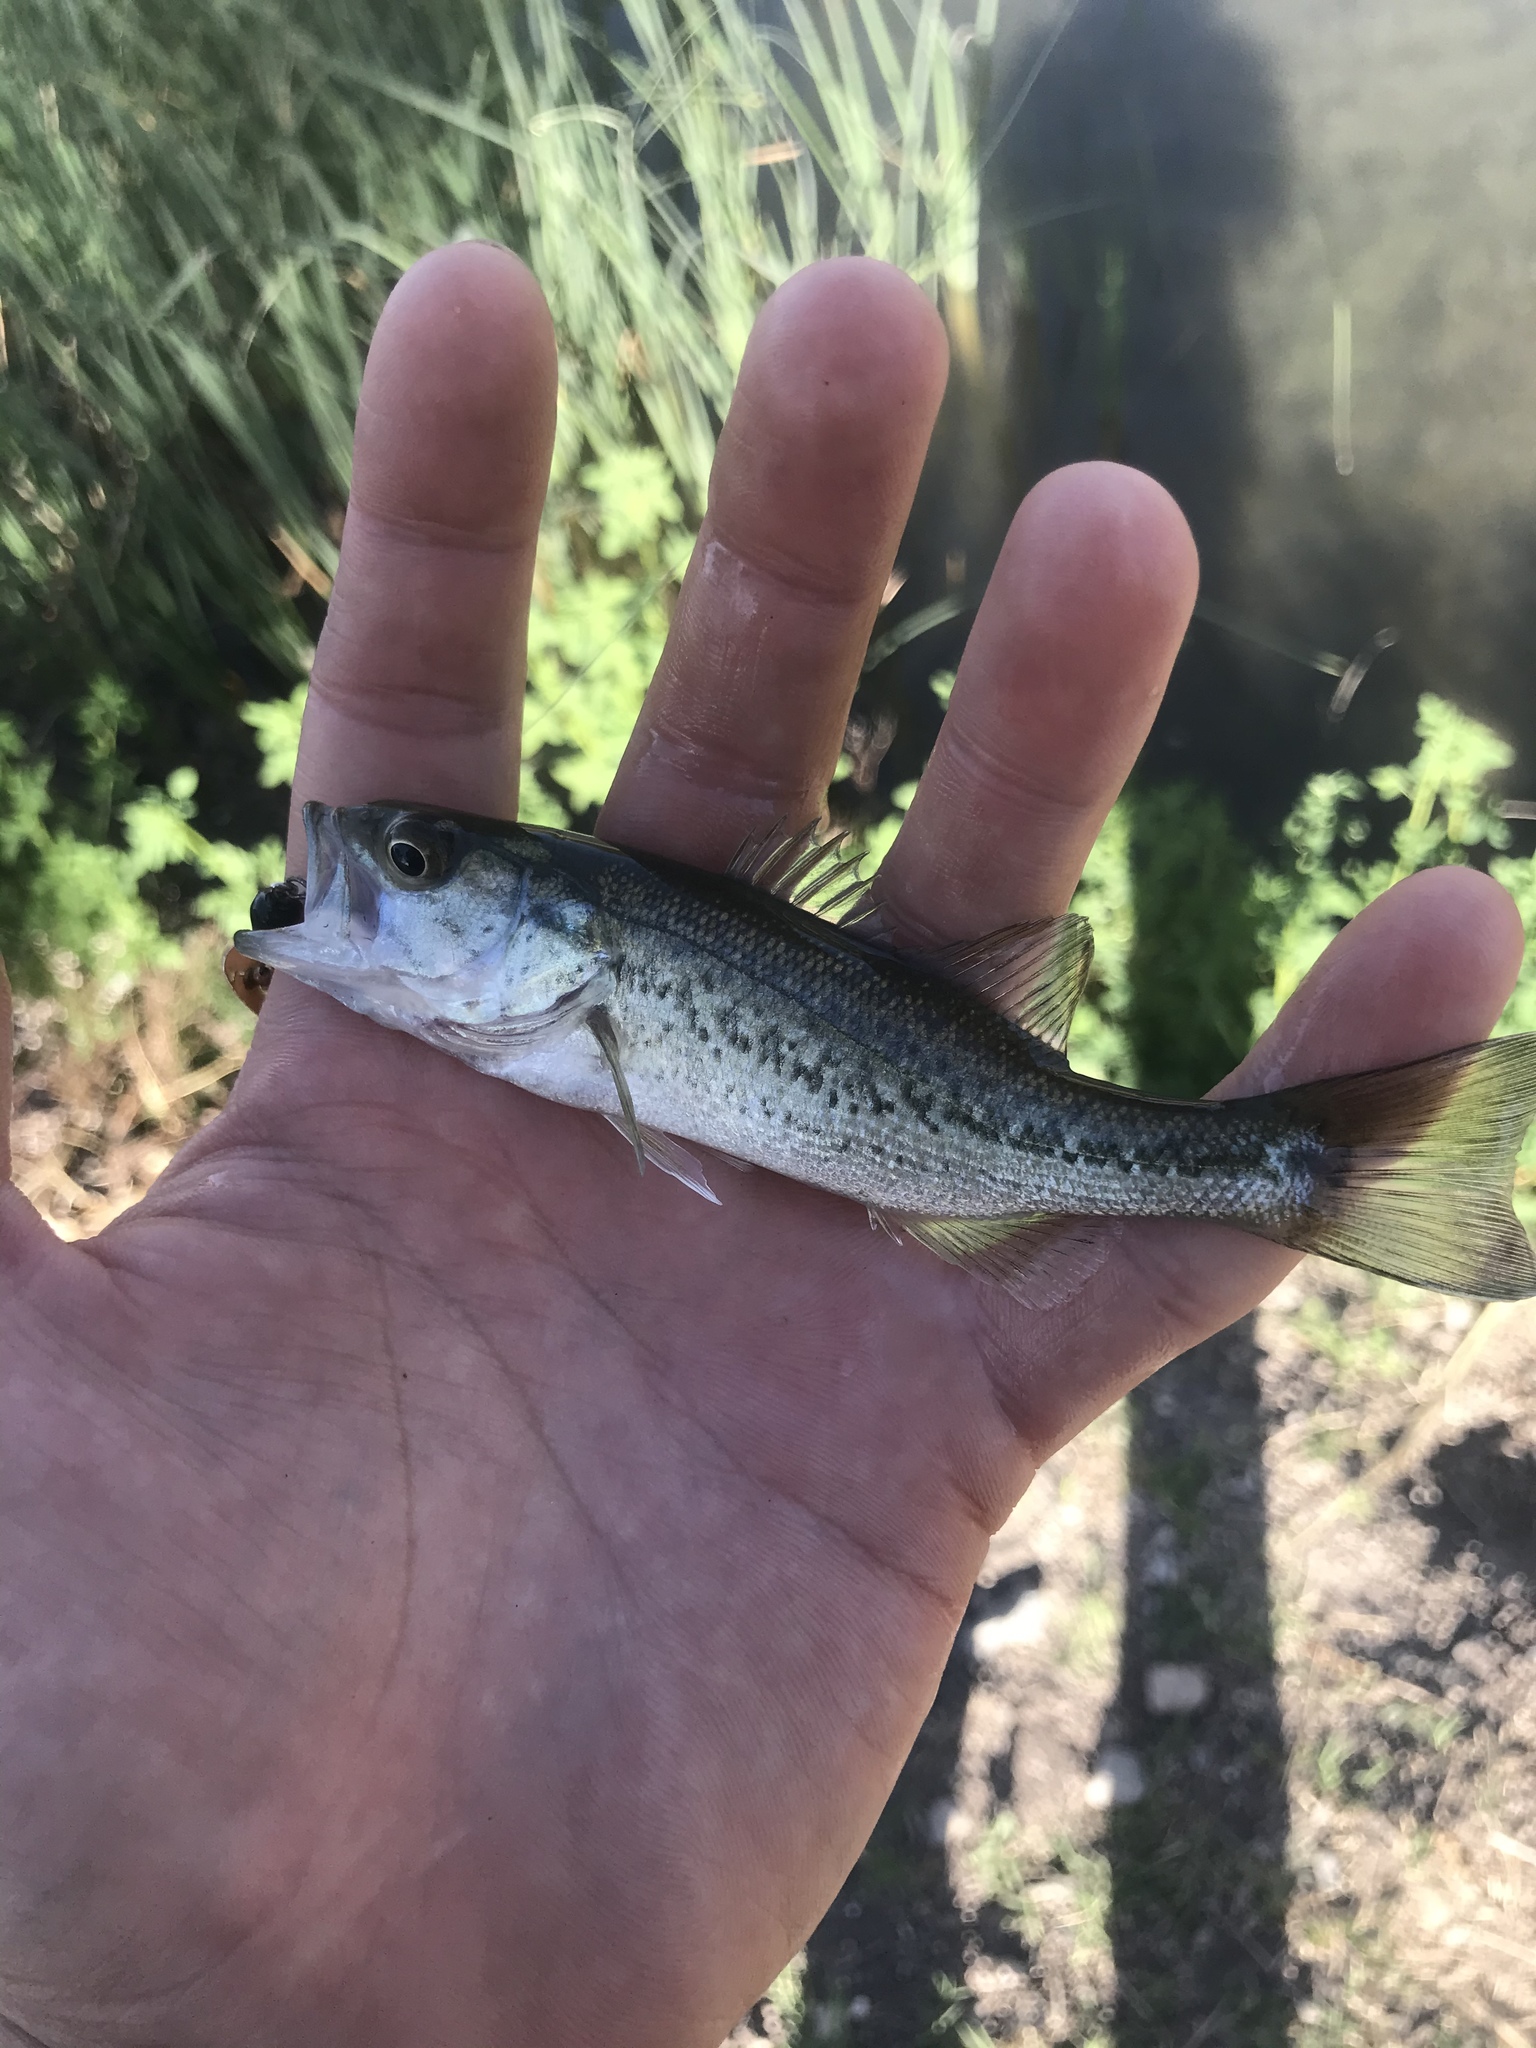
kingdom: Animalia
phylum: Chordata
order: Perciformes
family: Centrarchidae
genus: Micropterus
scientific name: Micropterus
